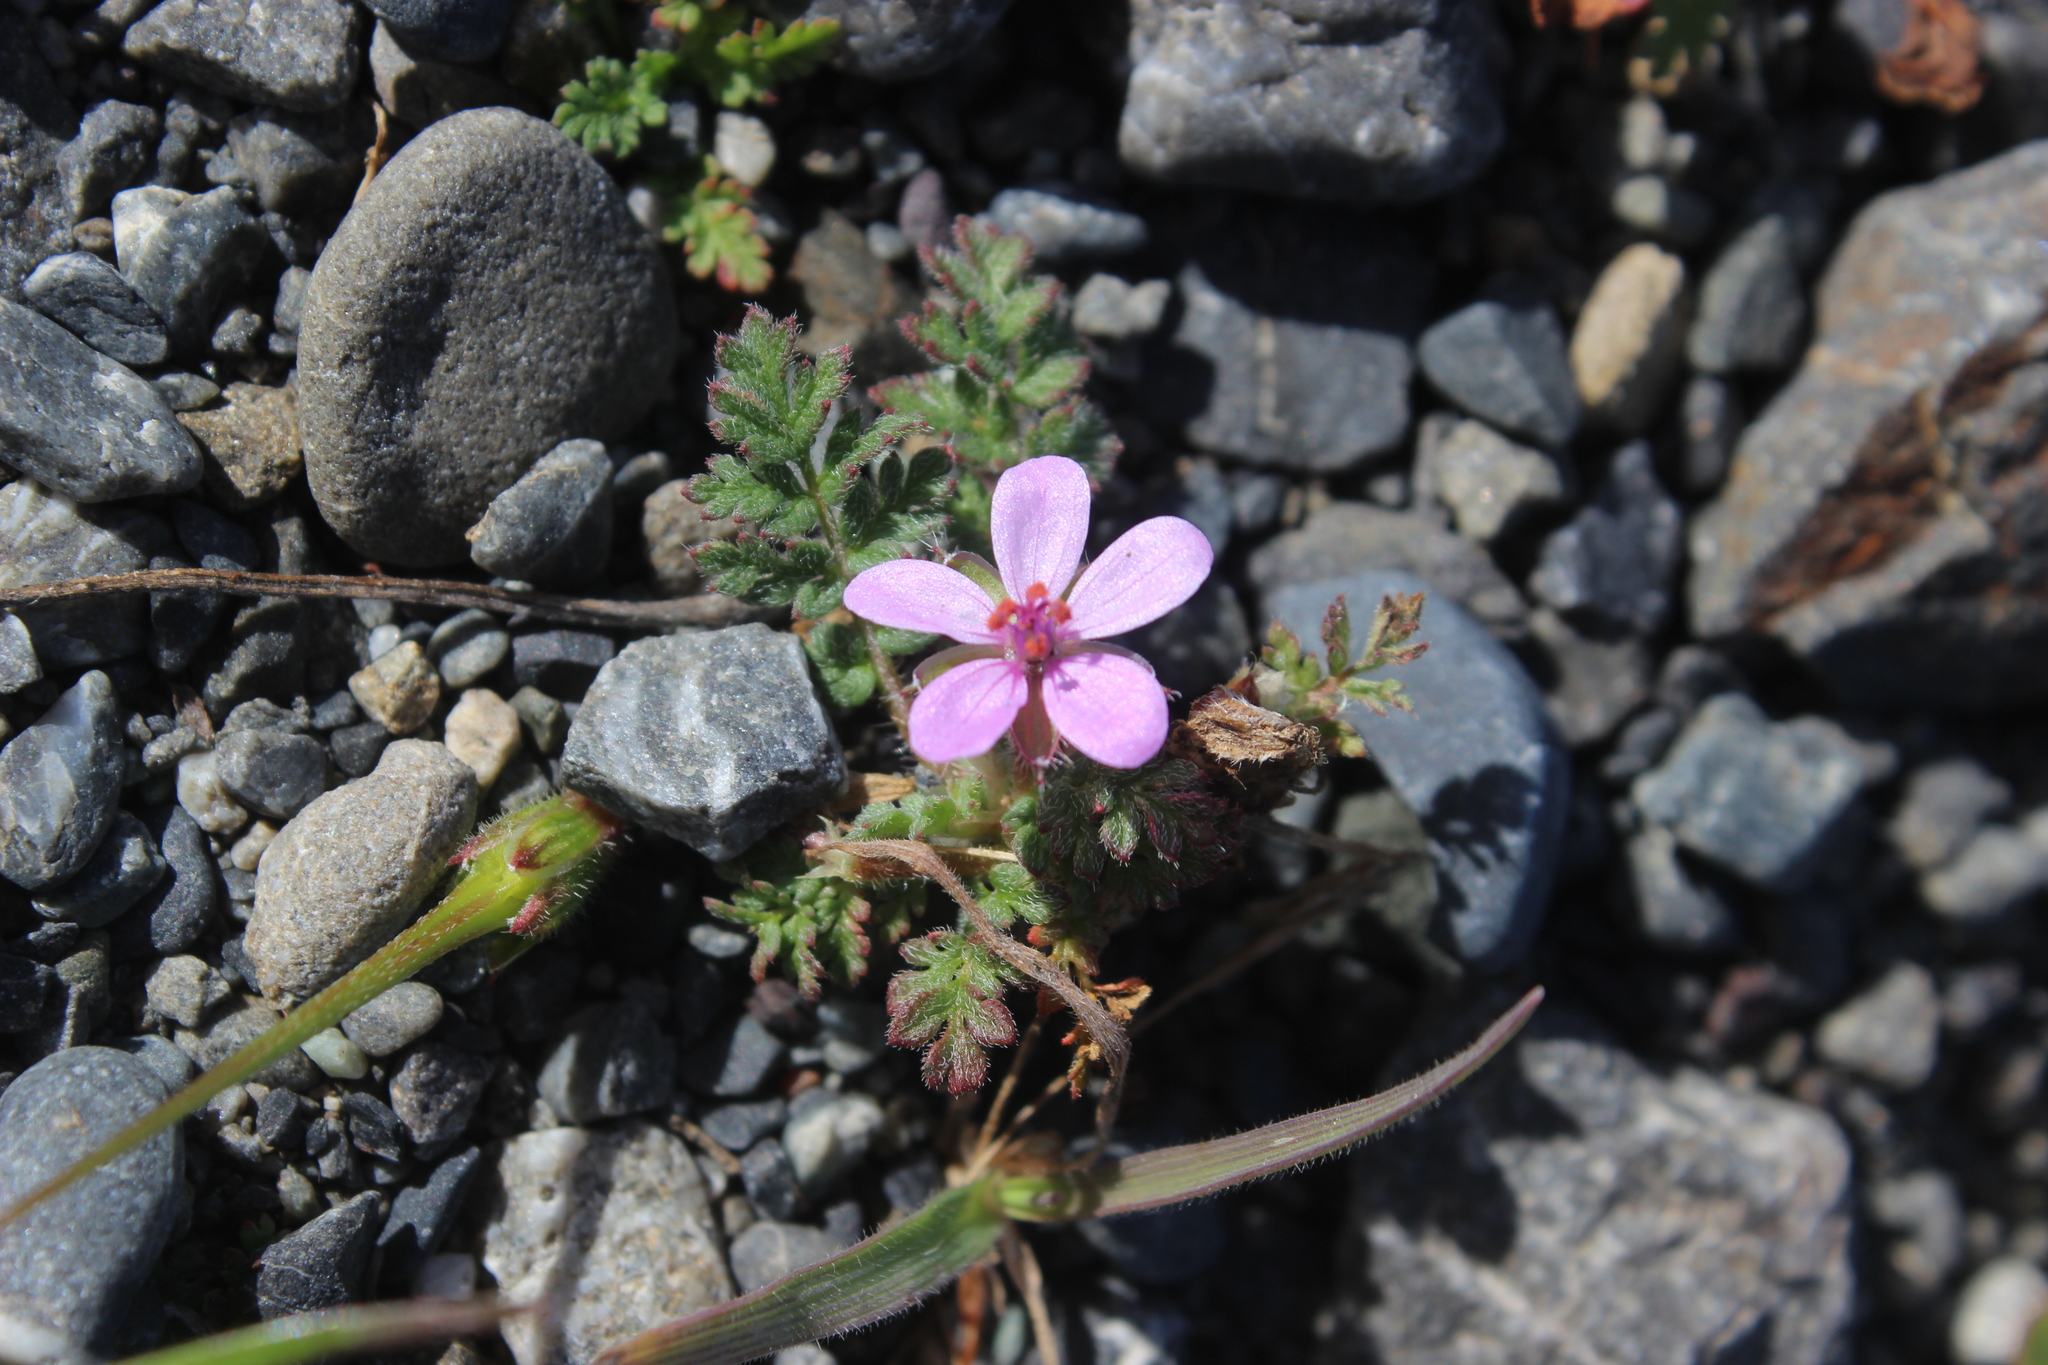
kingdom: Plantae
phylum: Tracheophyta
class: Magnoliopsida
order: Geraniales
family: Geraniaceae
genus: Erodium
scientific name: Erodium cicutarium
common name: Common stork's-bill
